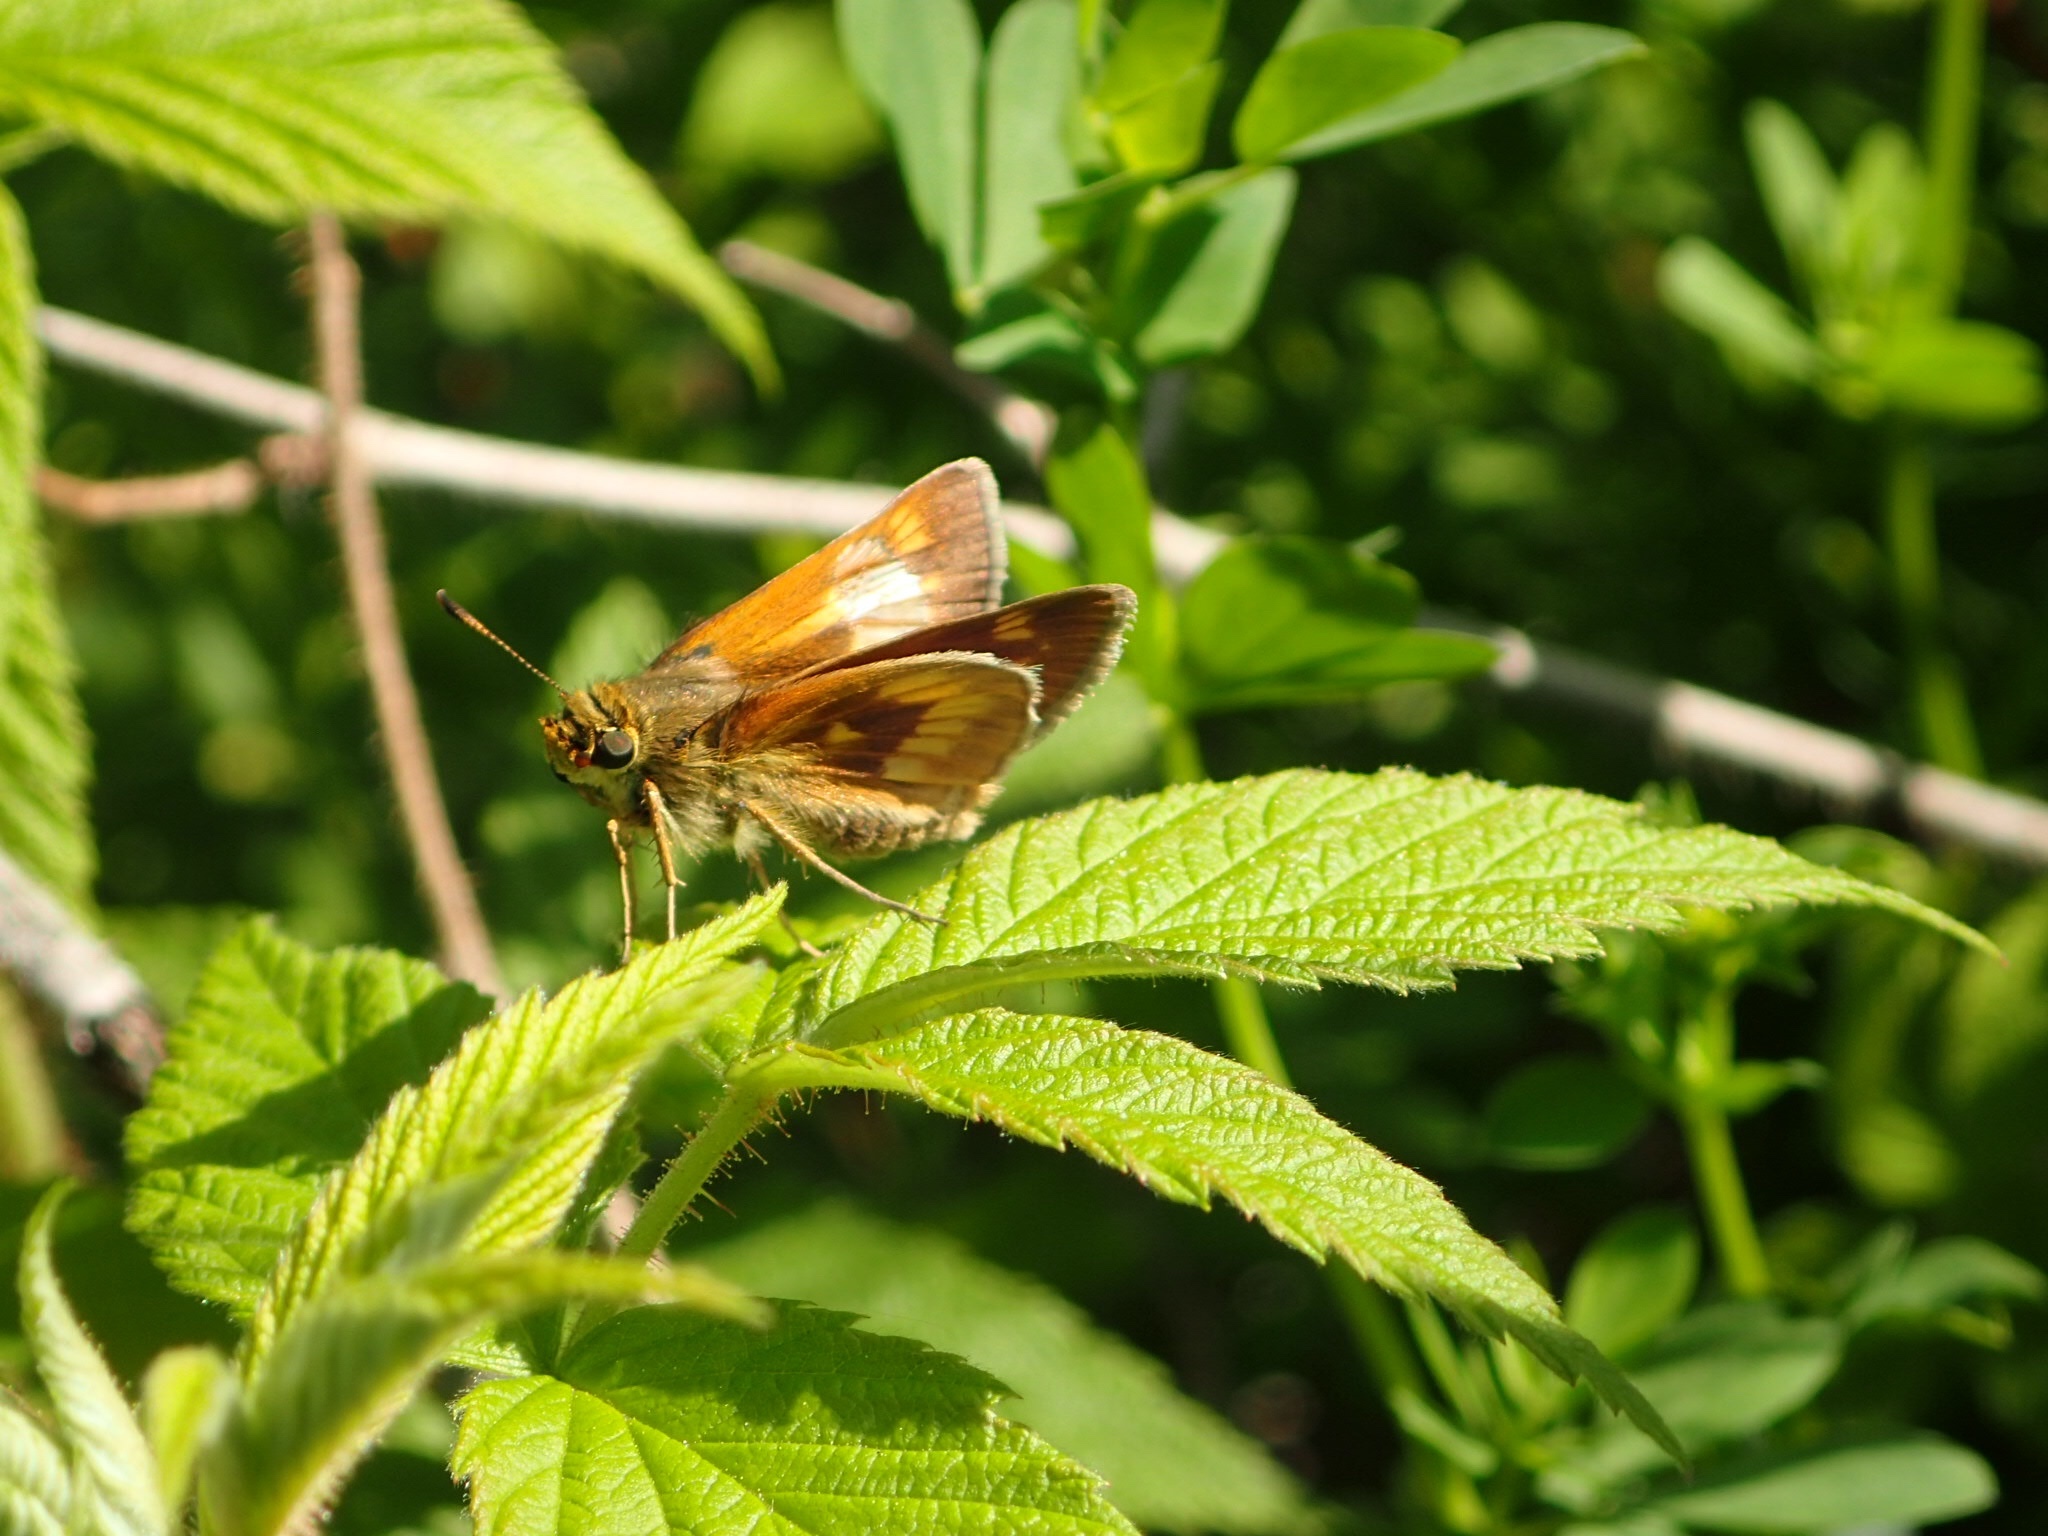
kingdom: Animalia
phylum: Arthropoda
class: Insecta
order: Lepidoptera
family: Hesperiidae
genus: Polites
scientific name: Polites mystic
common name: Long dash
